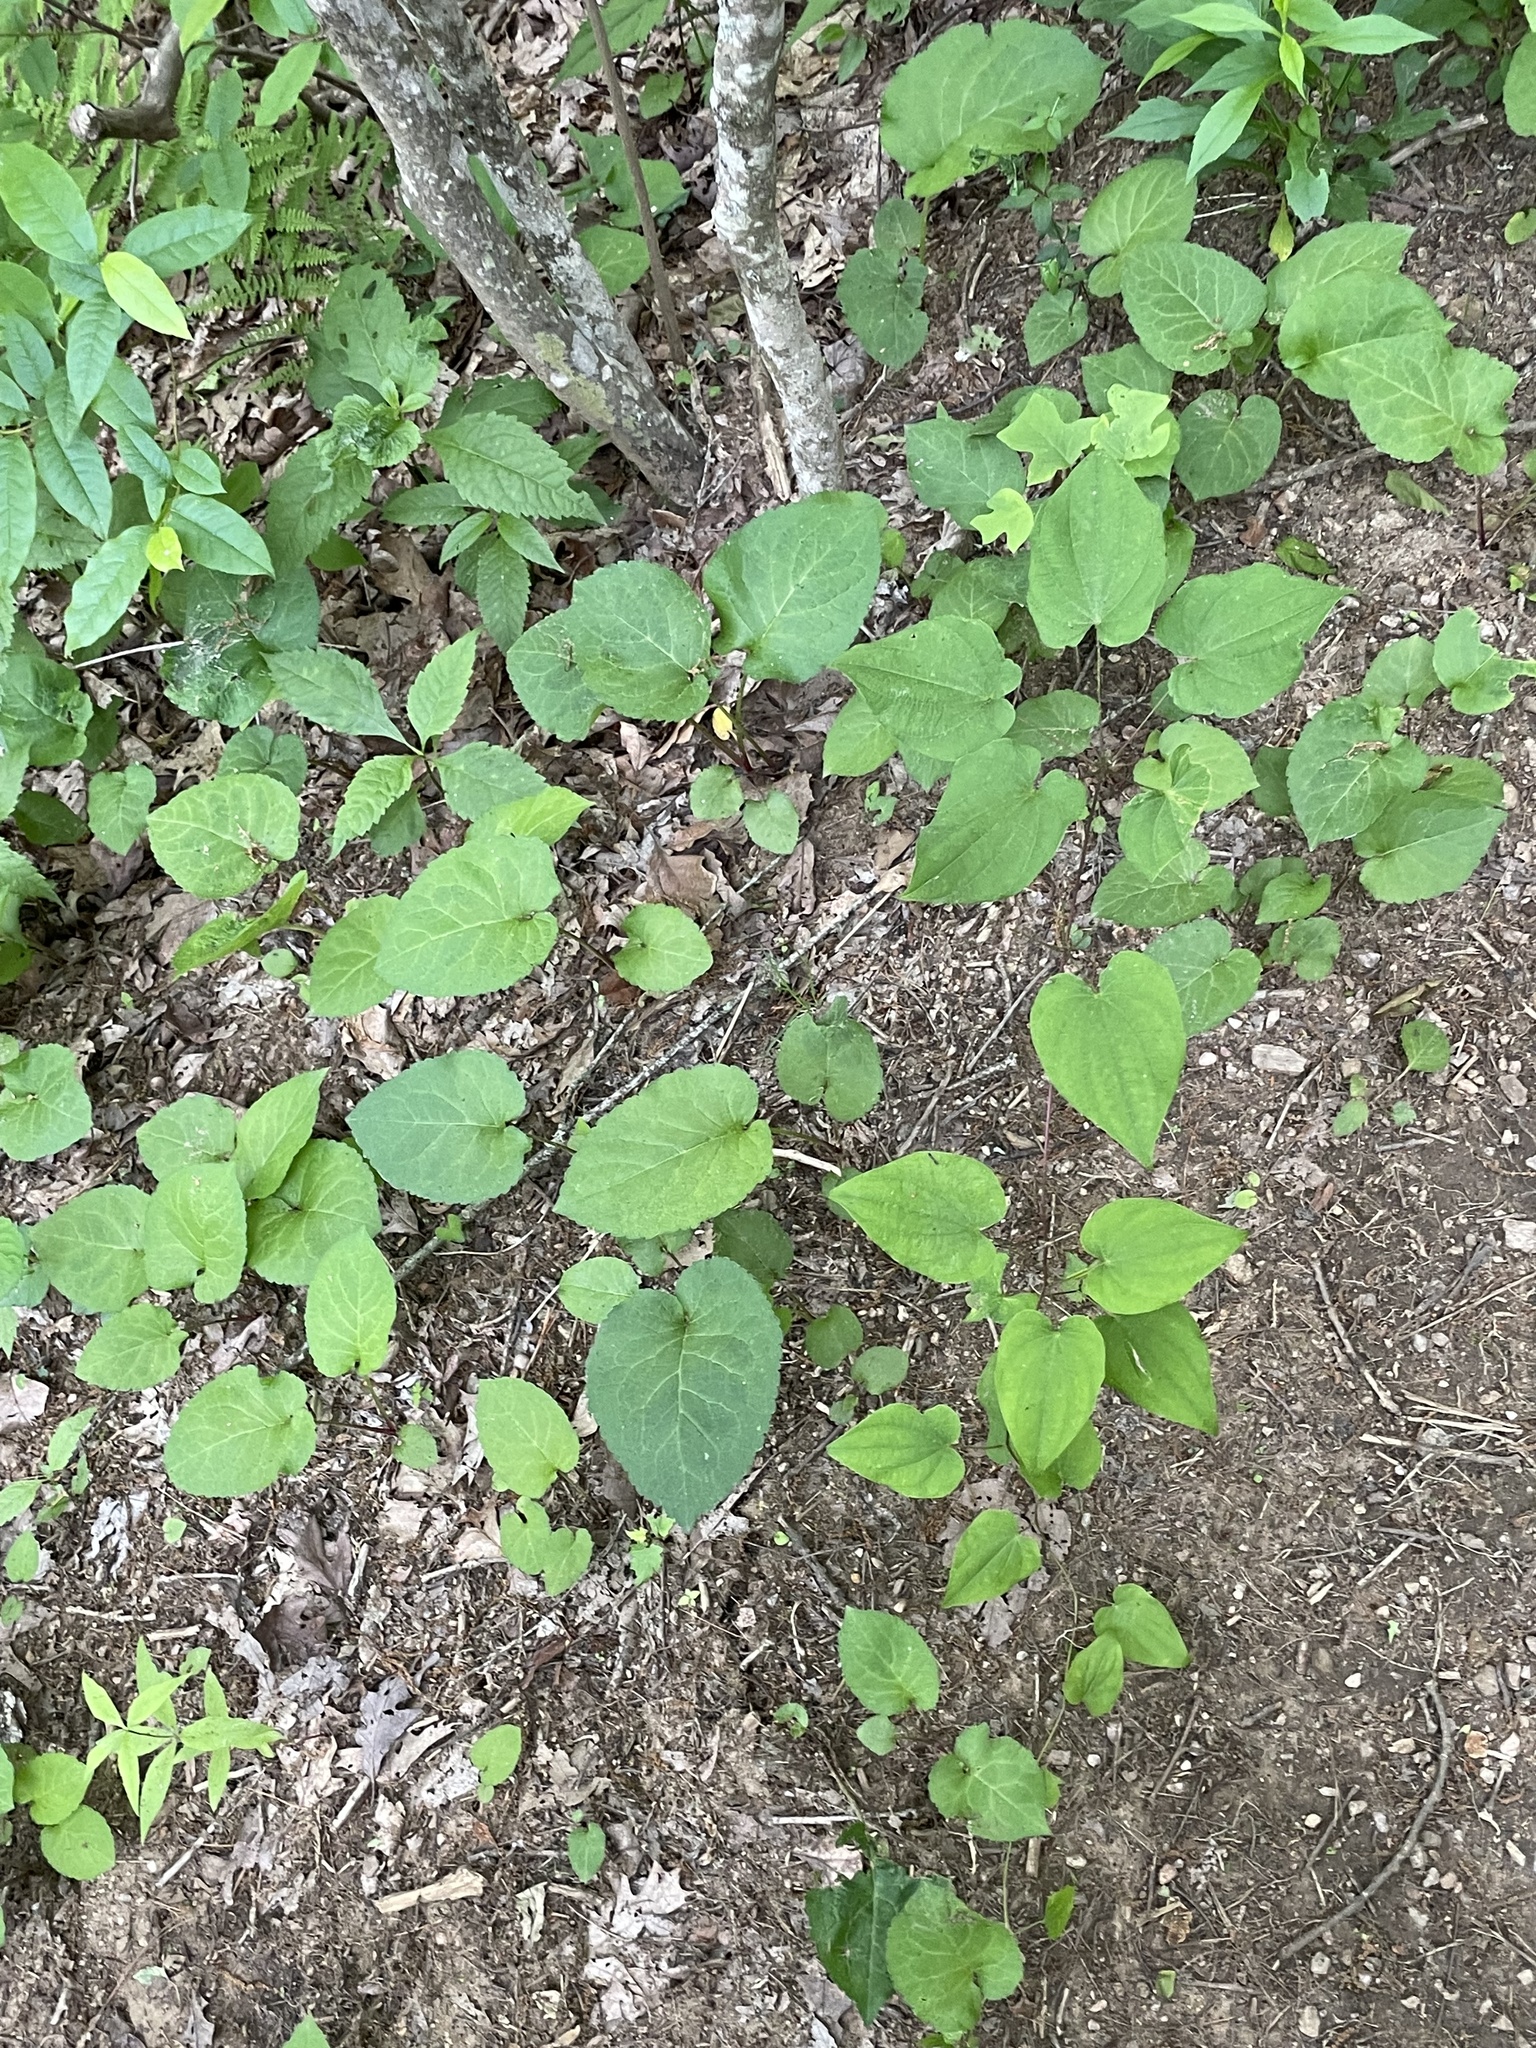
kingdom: Plantae
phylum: Tracheophyta
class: Magnoliopsida
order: Asterales
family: Asteraceae
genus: Eurybia
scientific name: Eurybia macrophylla
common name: Big-leaved aster
